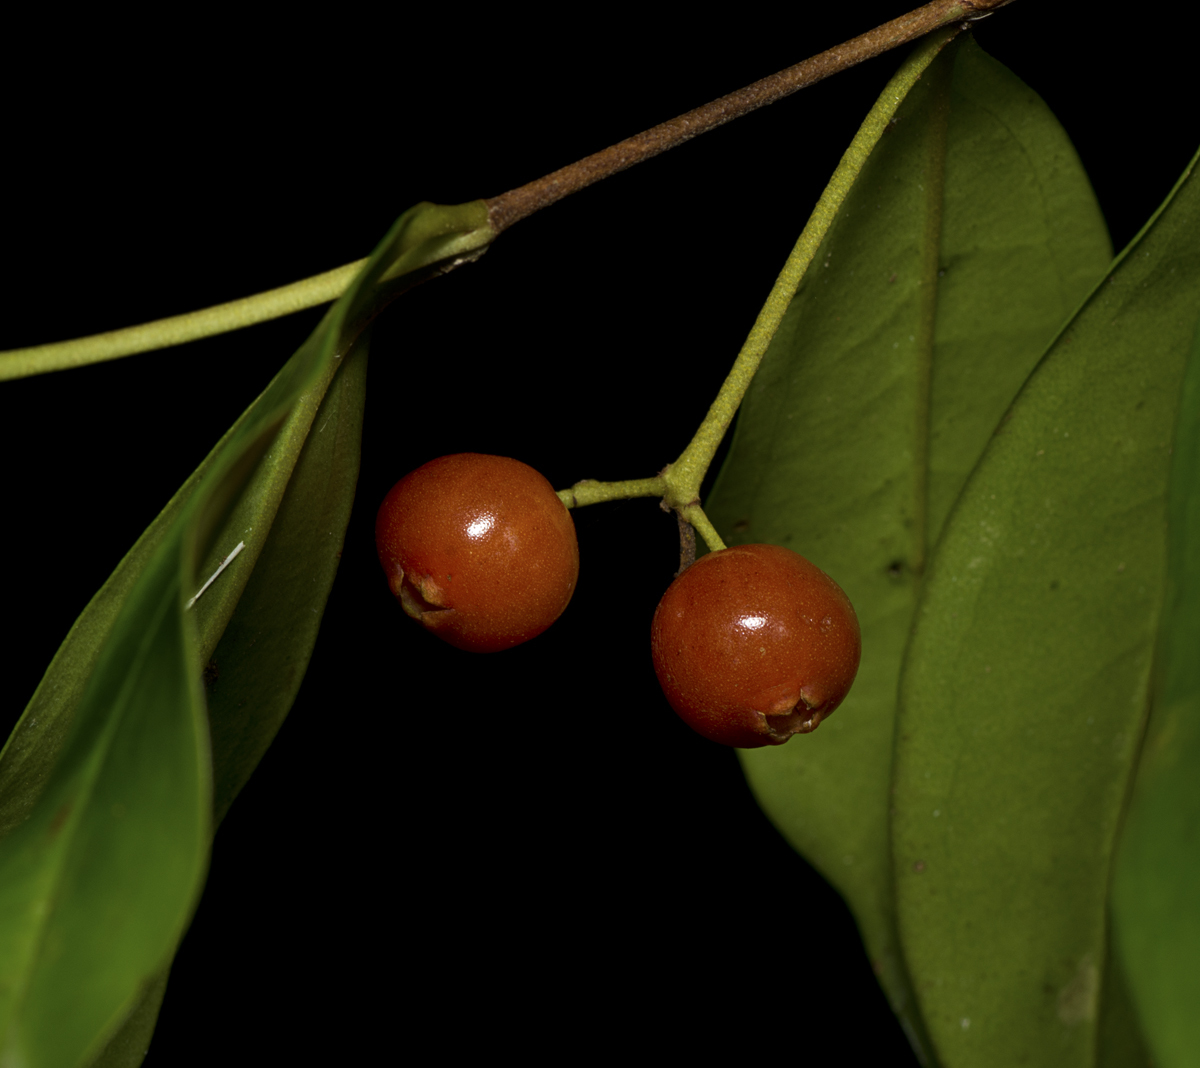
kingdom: Plantae
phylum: Tracheophyta
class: Magnoliopsida
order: Myrtales
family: Myrtaceae
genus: Archirhodomyrtus
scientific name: Archirhodomyrtus beckleri
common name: Beckler's myrtle
